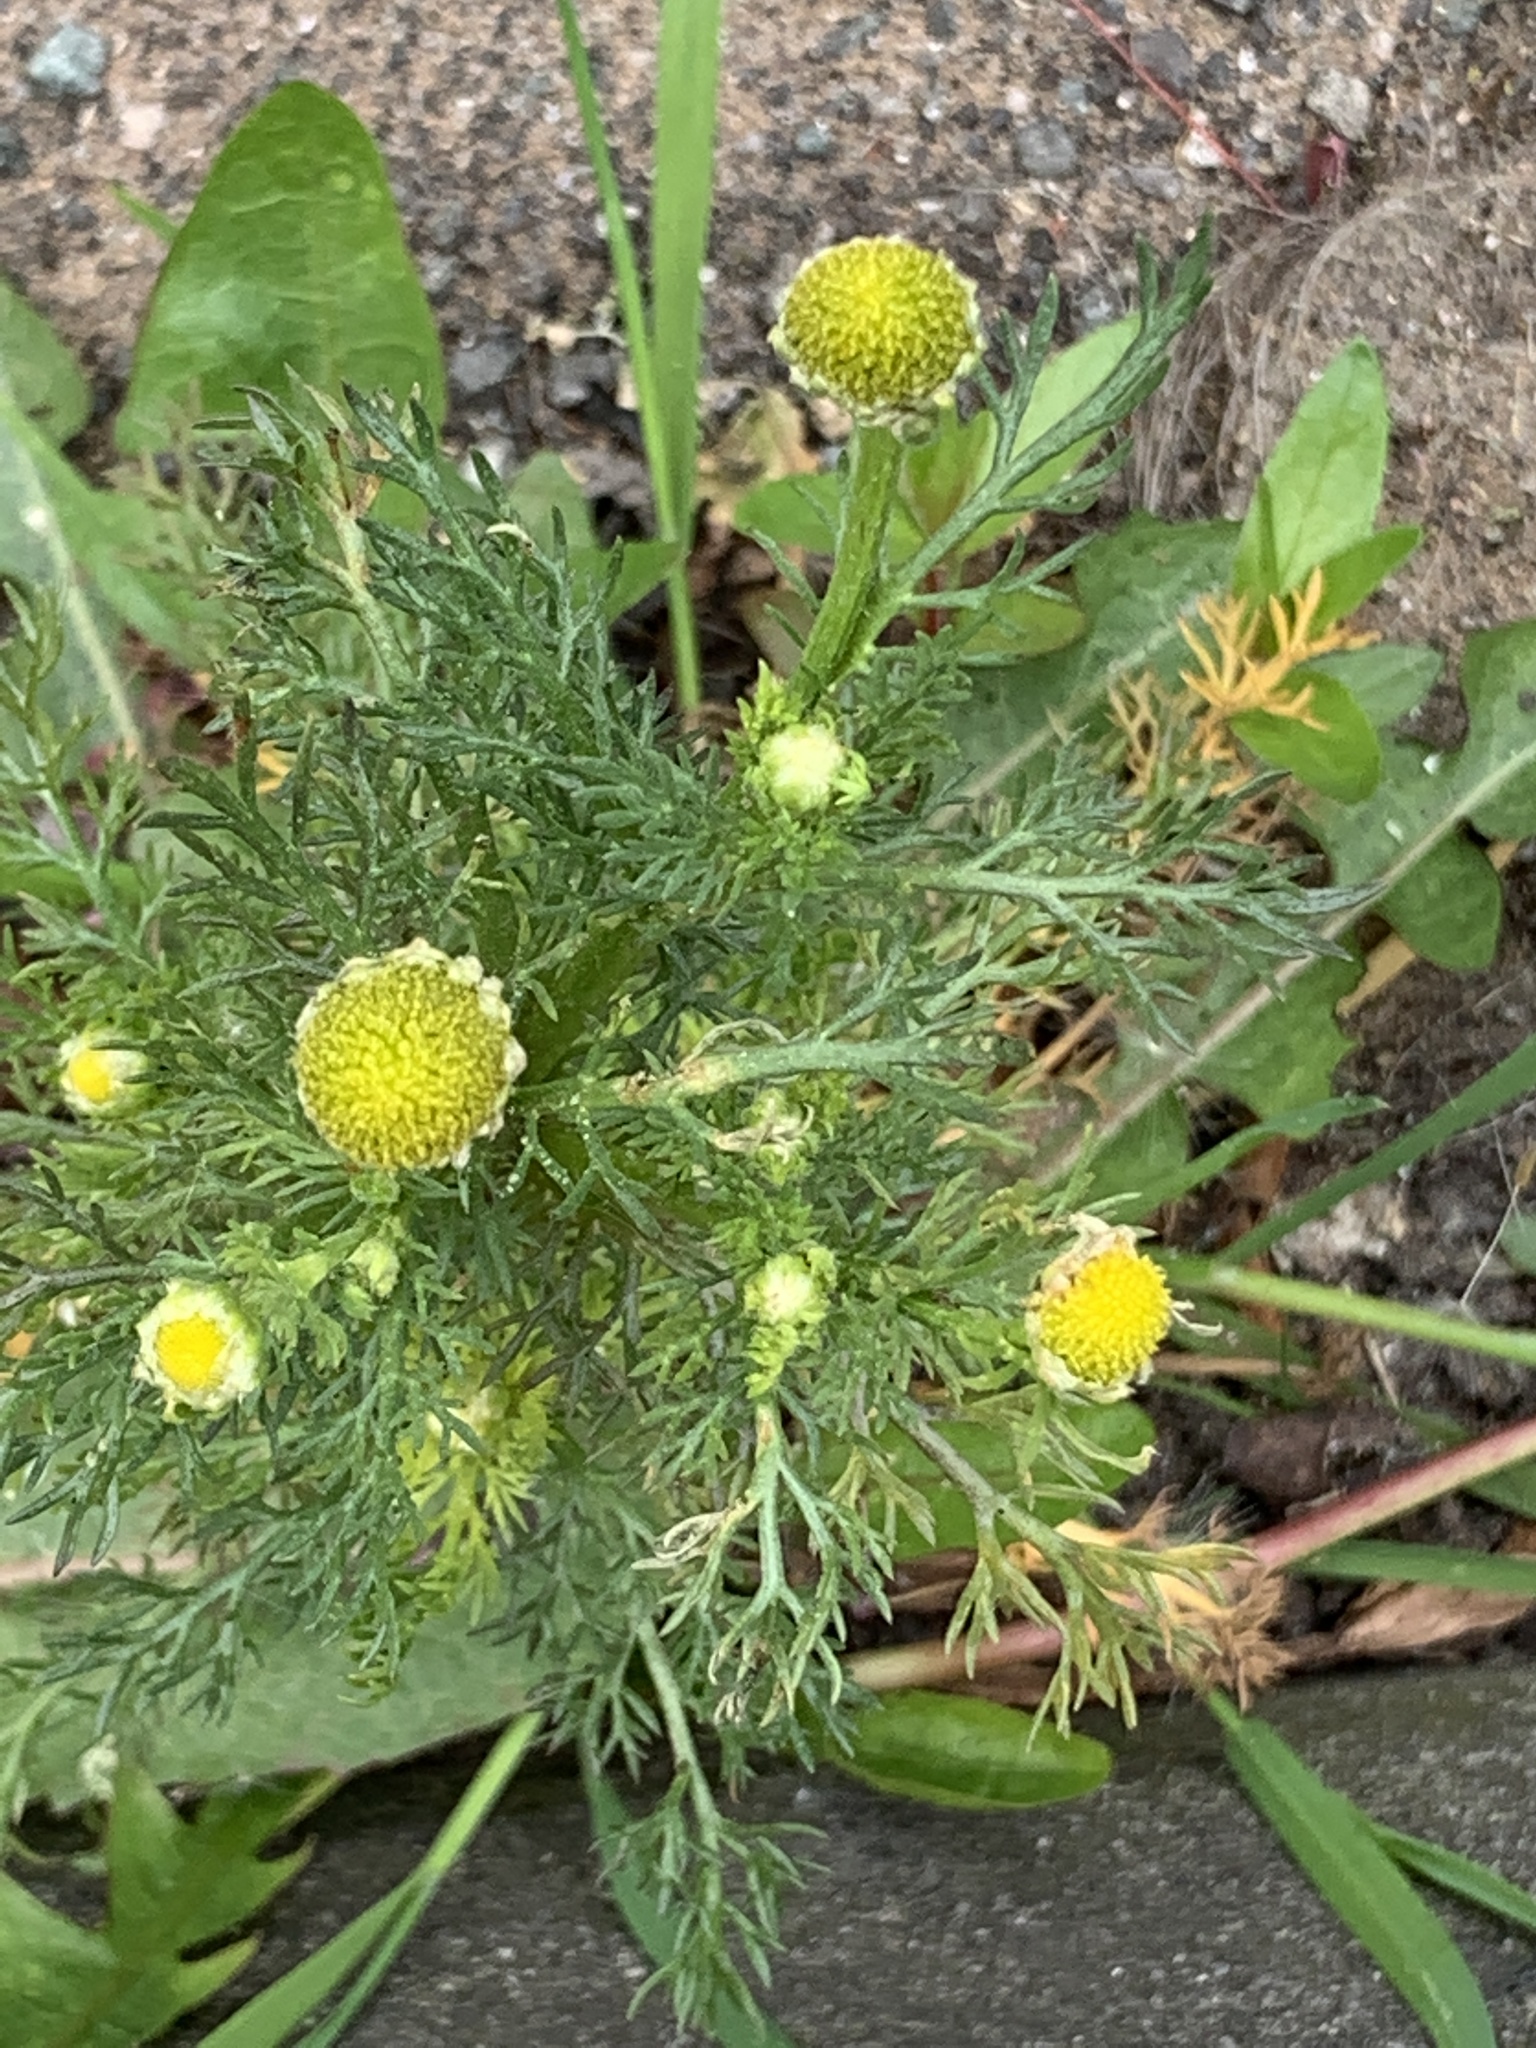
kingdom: Plantae
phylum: Tracheophyta
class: Magnoliopsida
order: Asterales
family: Asteraceae
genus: Matricaria
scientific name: Matricaria discoidea
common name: Disc mayweed
